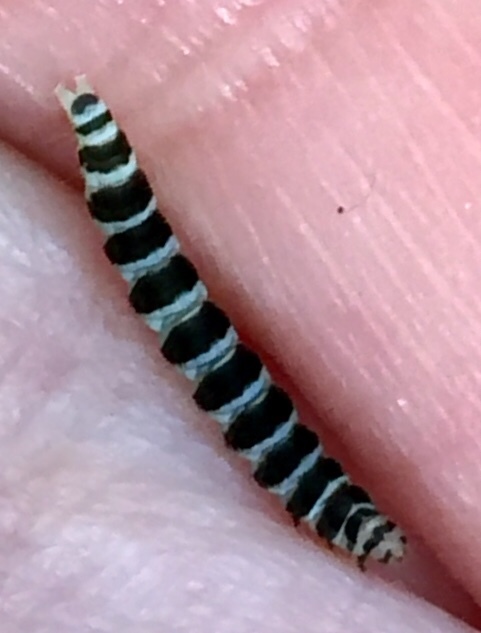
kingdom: Animalia
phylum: Arthropoda
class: Insecta
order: Lepidoptera
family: Gelechiidae
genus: Fascista
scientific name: Fascista cercerisella
